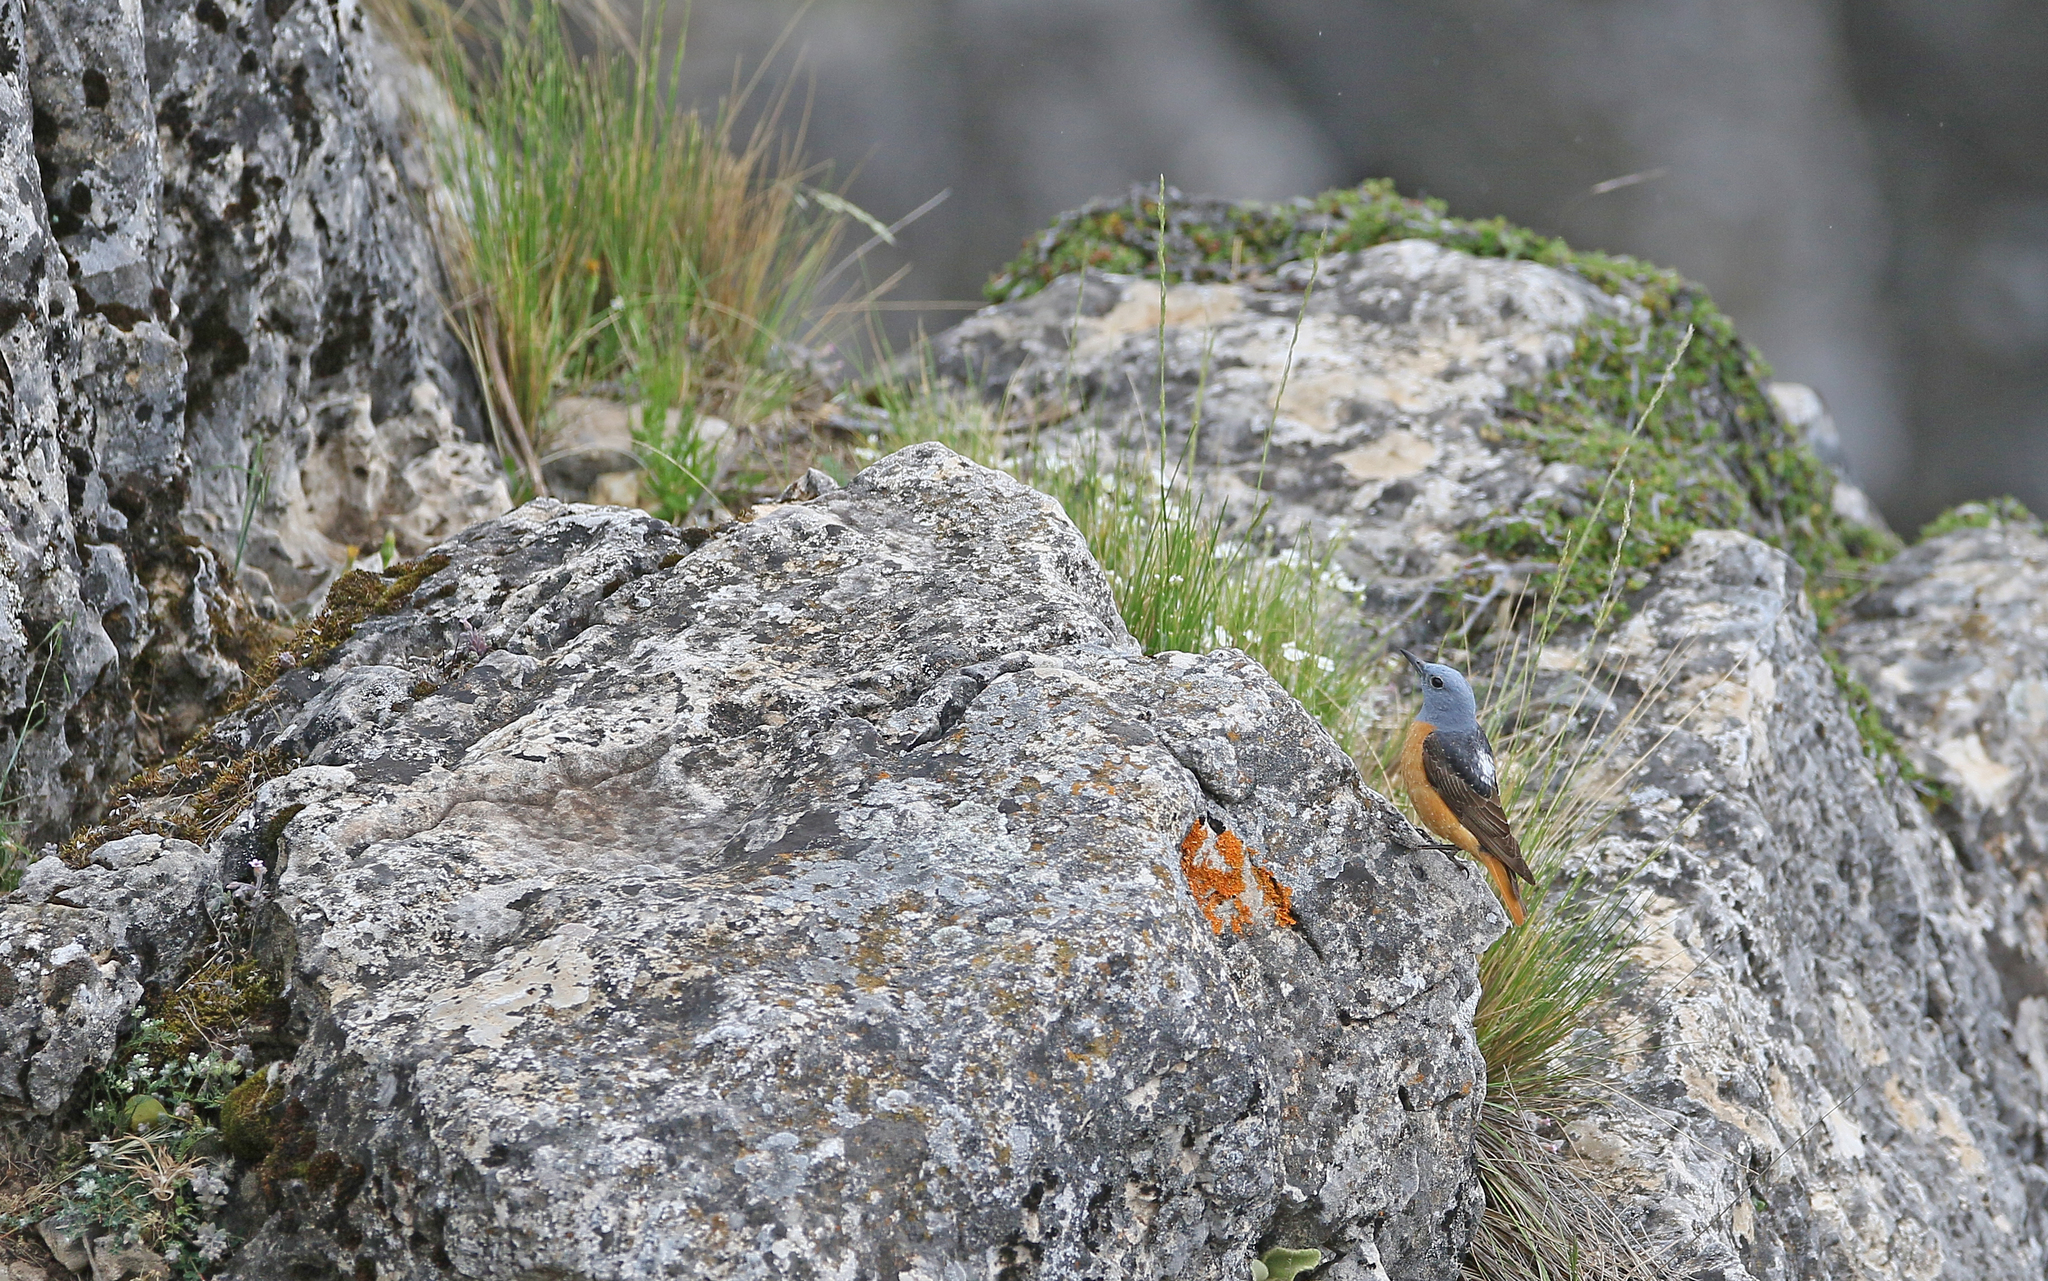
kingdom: Animalia
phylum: Chordata
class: Aves
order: Passeriformes
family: Muscicapidae
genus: Monticola
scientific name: Monticola saxatilis
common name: Rufous-tailed rock thrush
